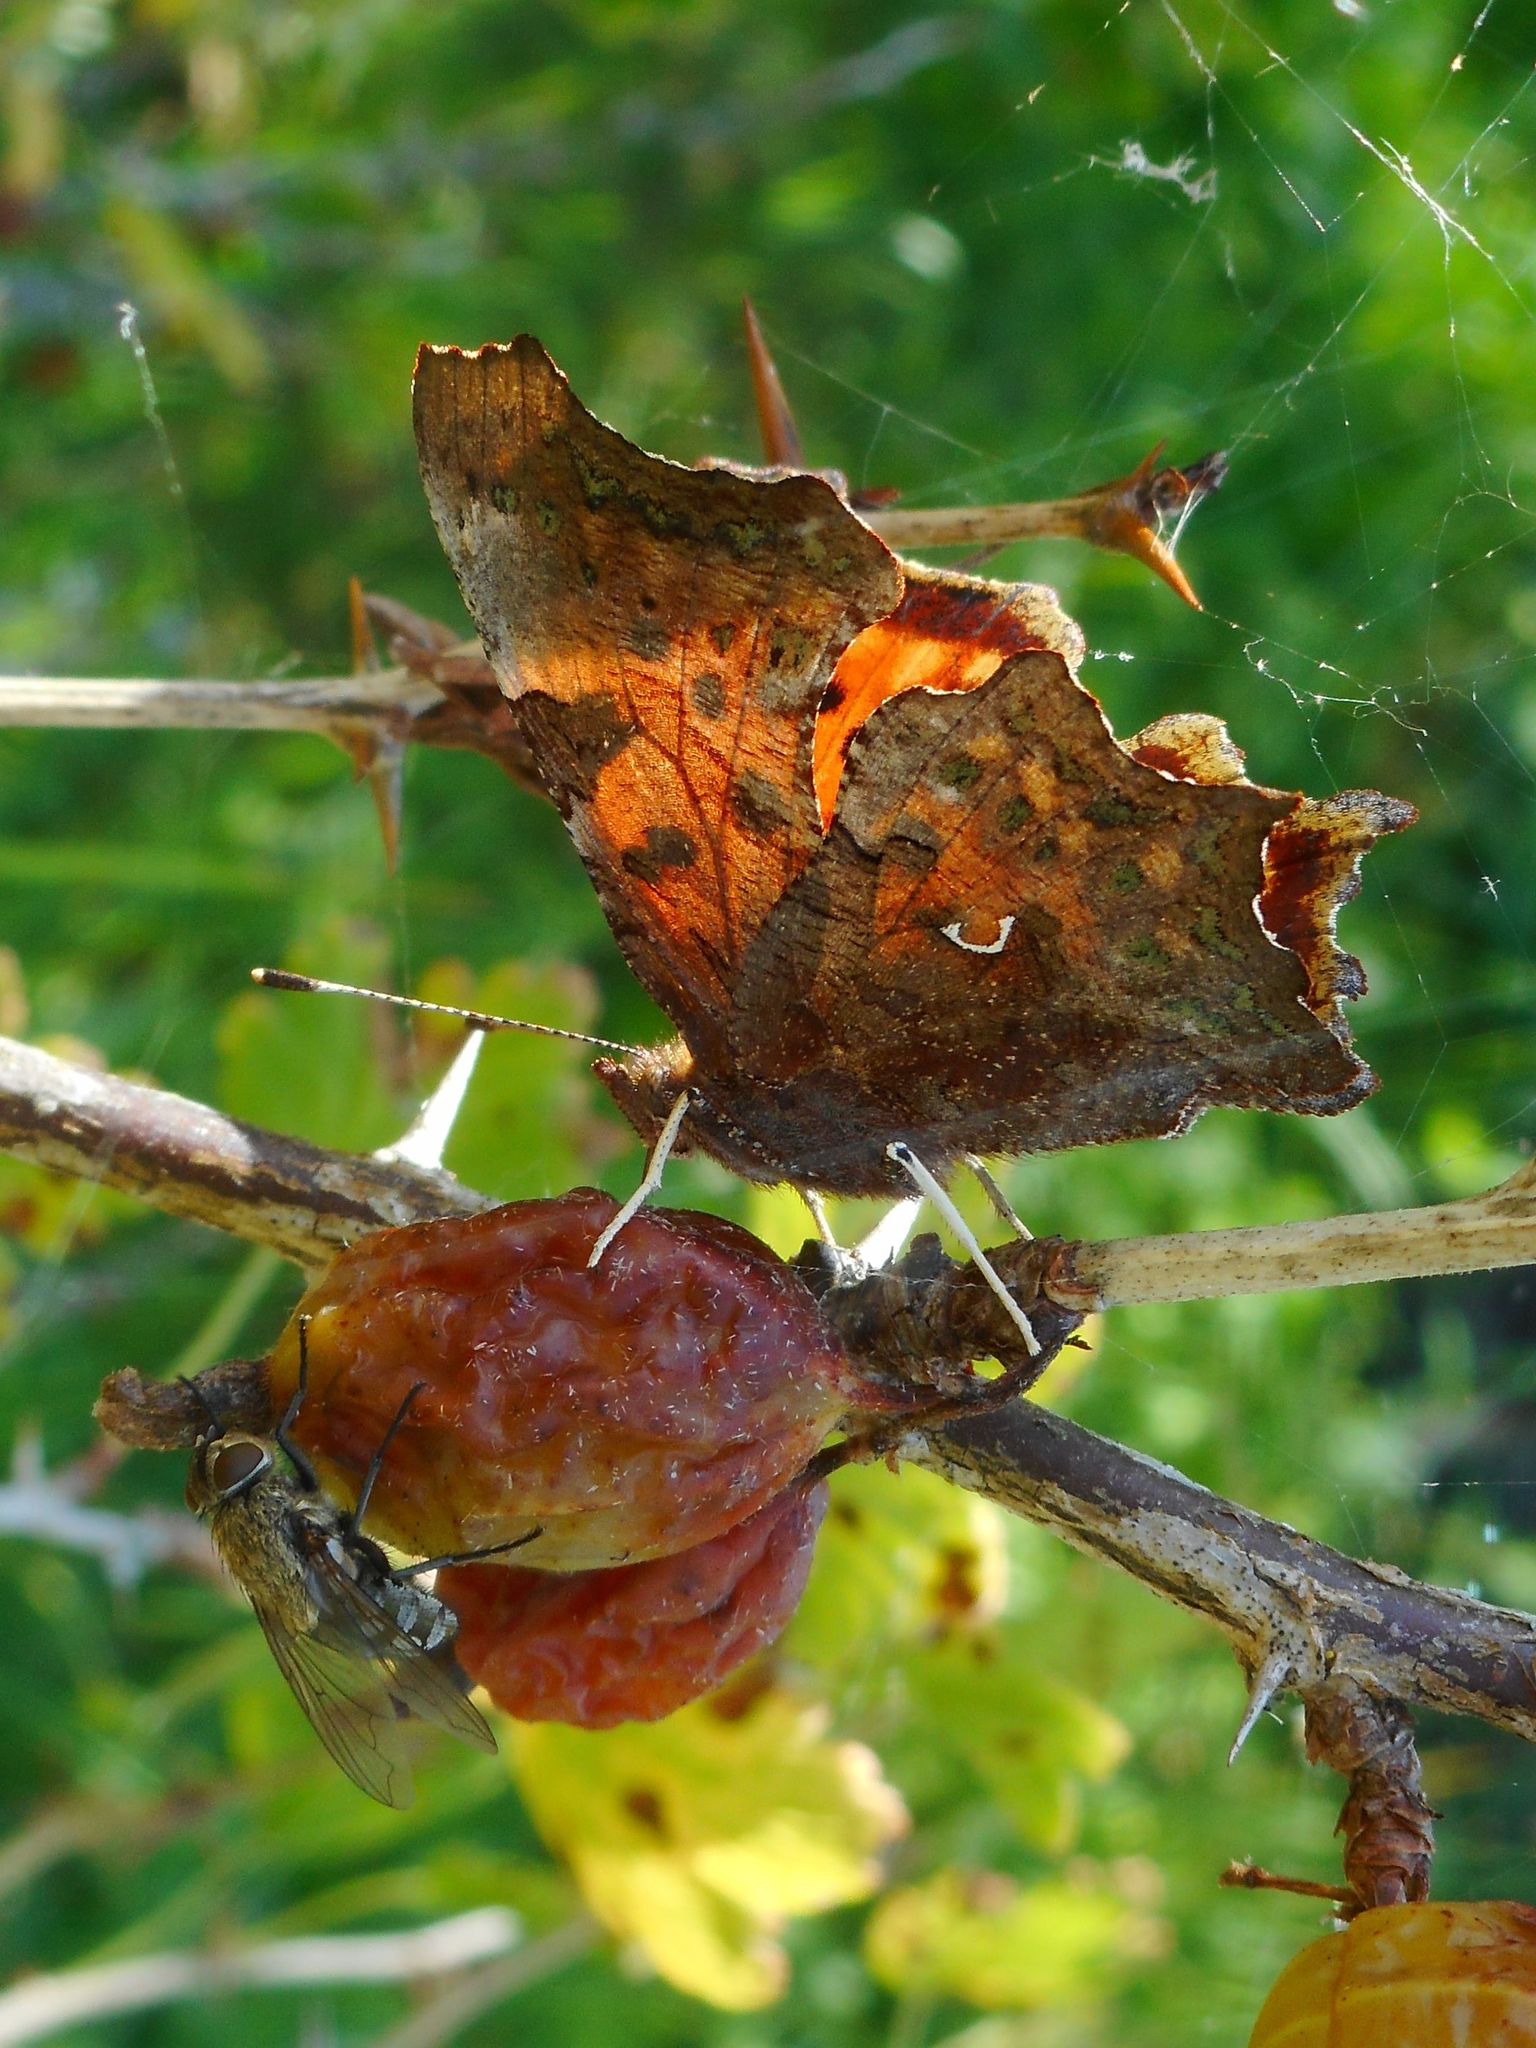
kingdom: Animalia
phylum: Arthropoda
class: Insecta
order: Lepidoptera
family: Nymphalidae
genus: Polygonia
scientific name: Polygonia c-album
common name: Comma
